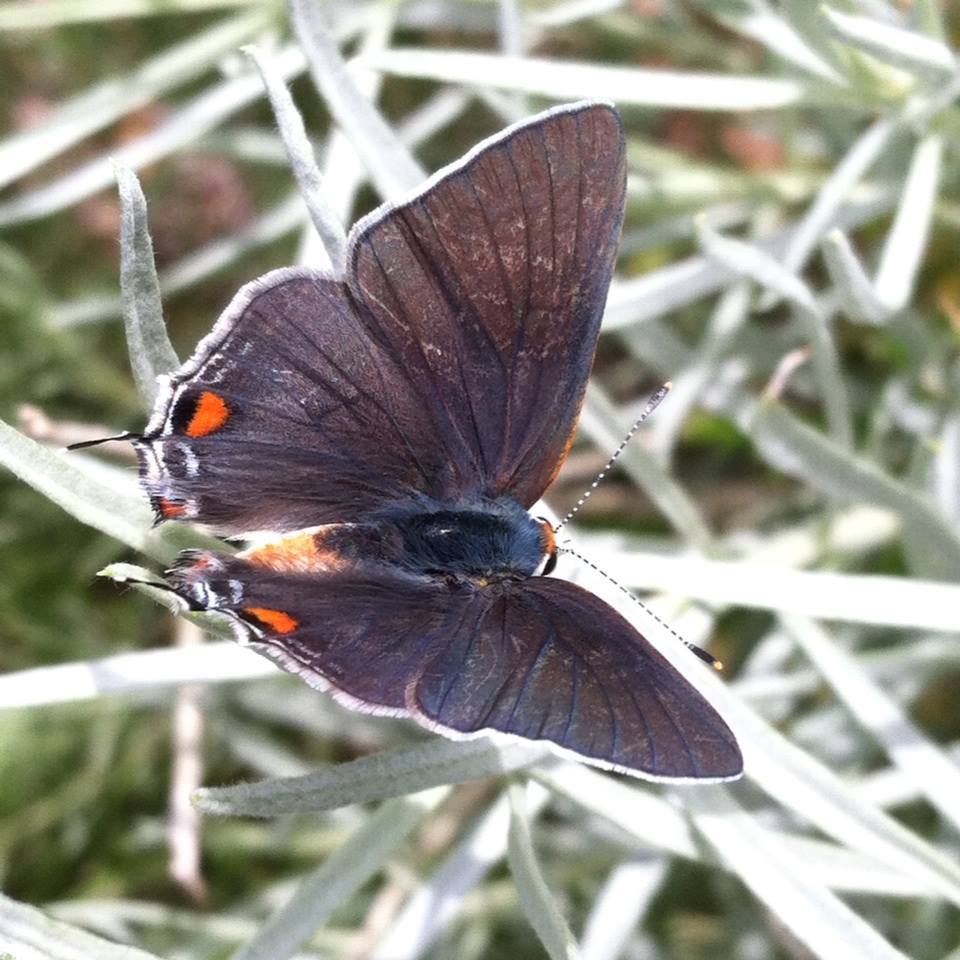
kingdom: Animalia
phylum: Arthropoda
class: Insecta
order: Lepidoptera
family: Lycaenidae
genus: Strymon
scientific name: Strymon melinus
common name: Gray hairstreak
